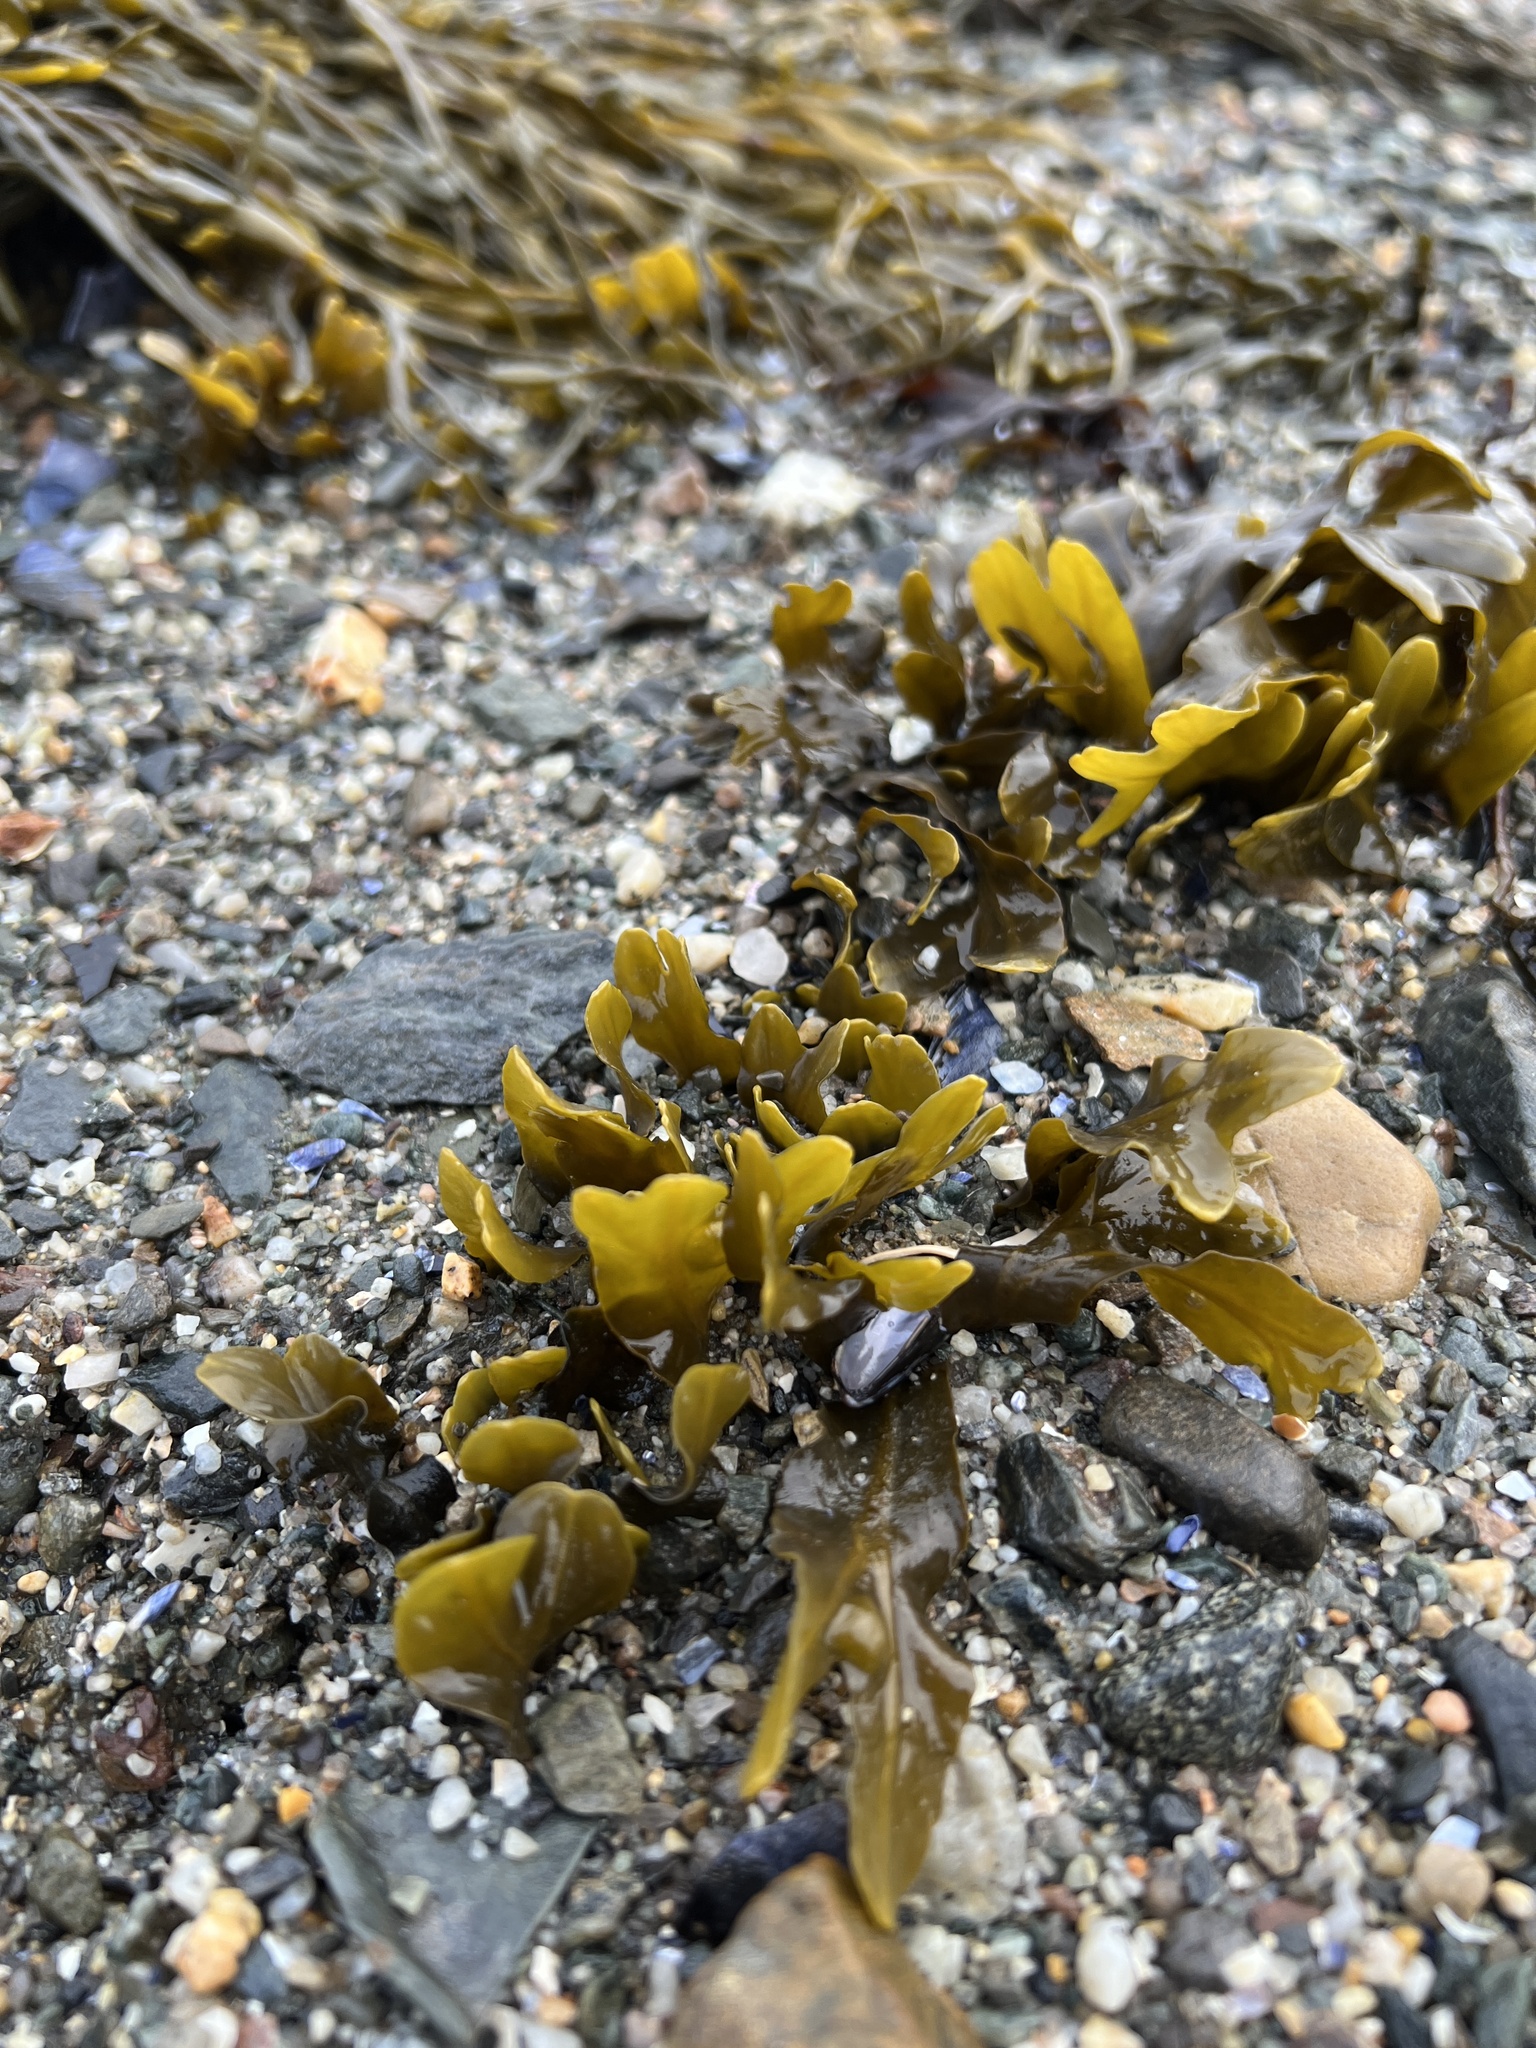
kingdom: Chromista
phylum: Ochrophyta
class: Phaeophyceae
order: Fucales
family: Fucaceae
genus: Fucus
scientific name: Fucus
